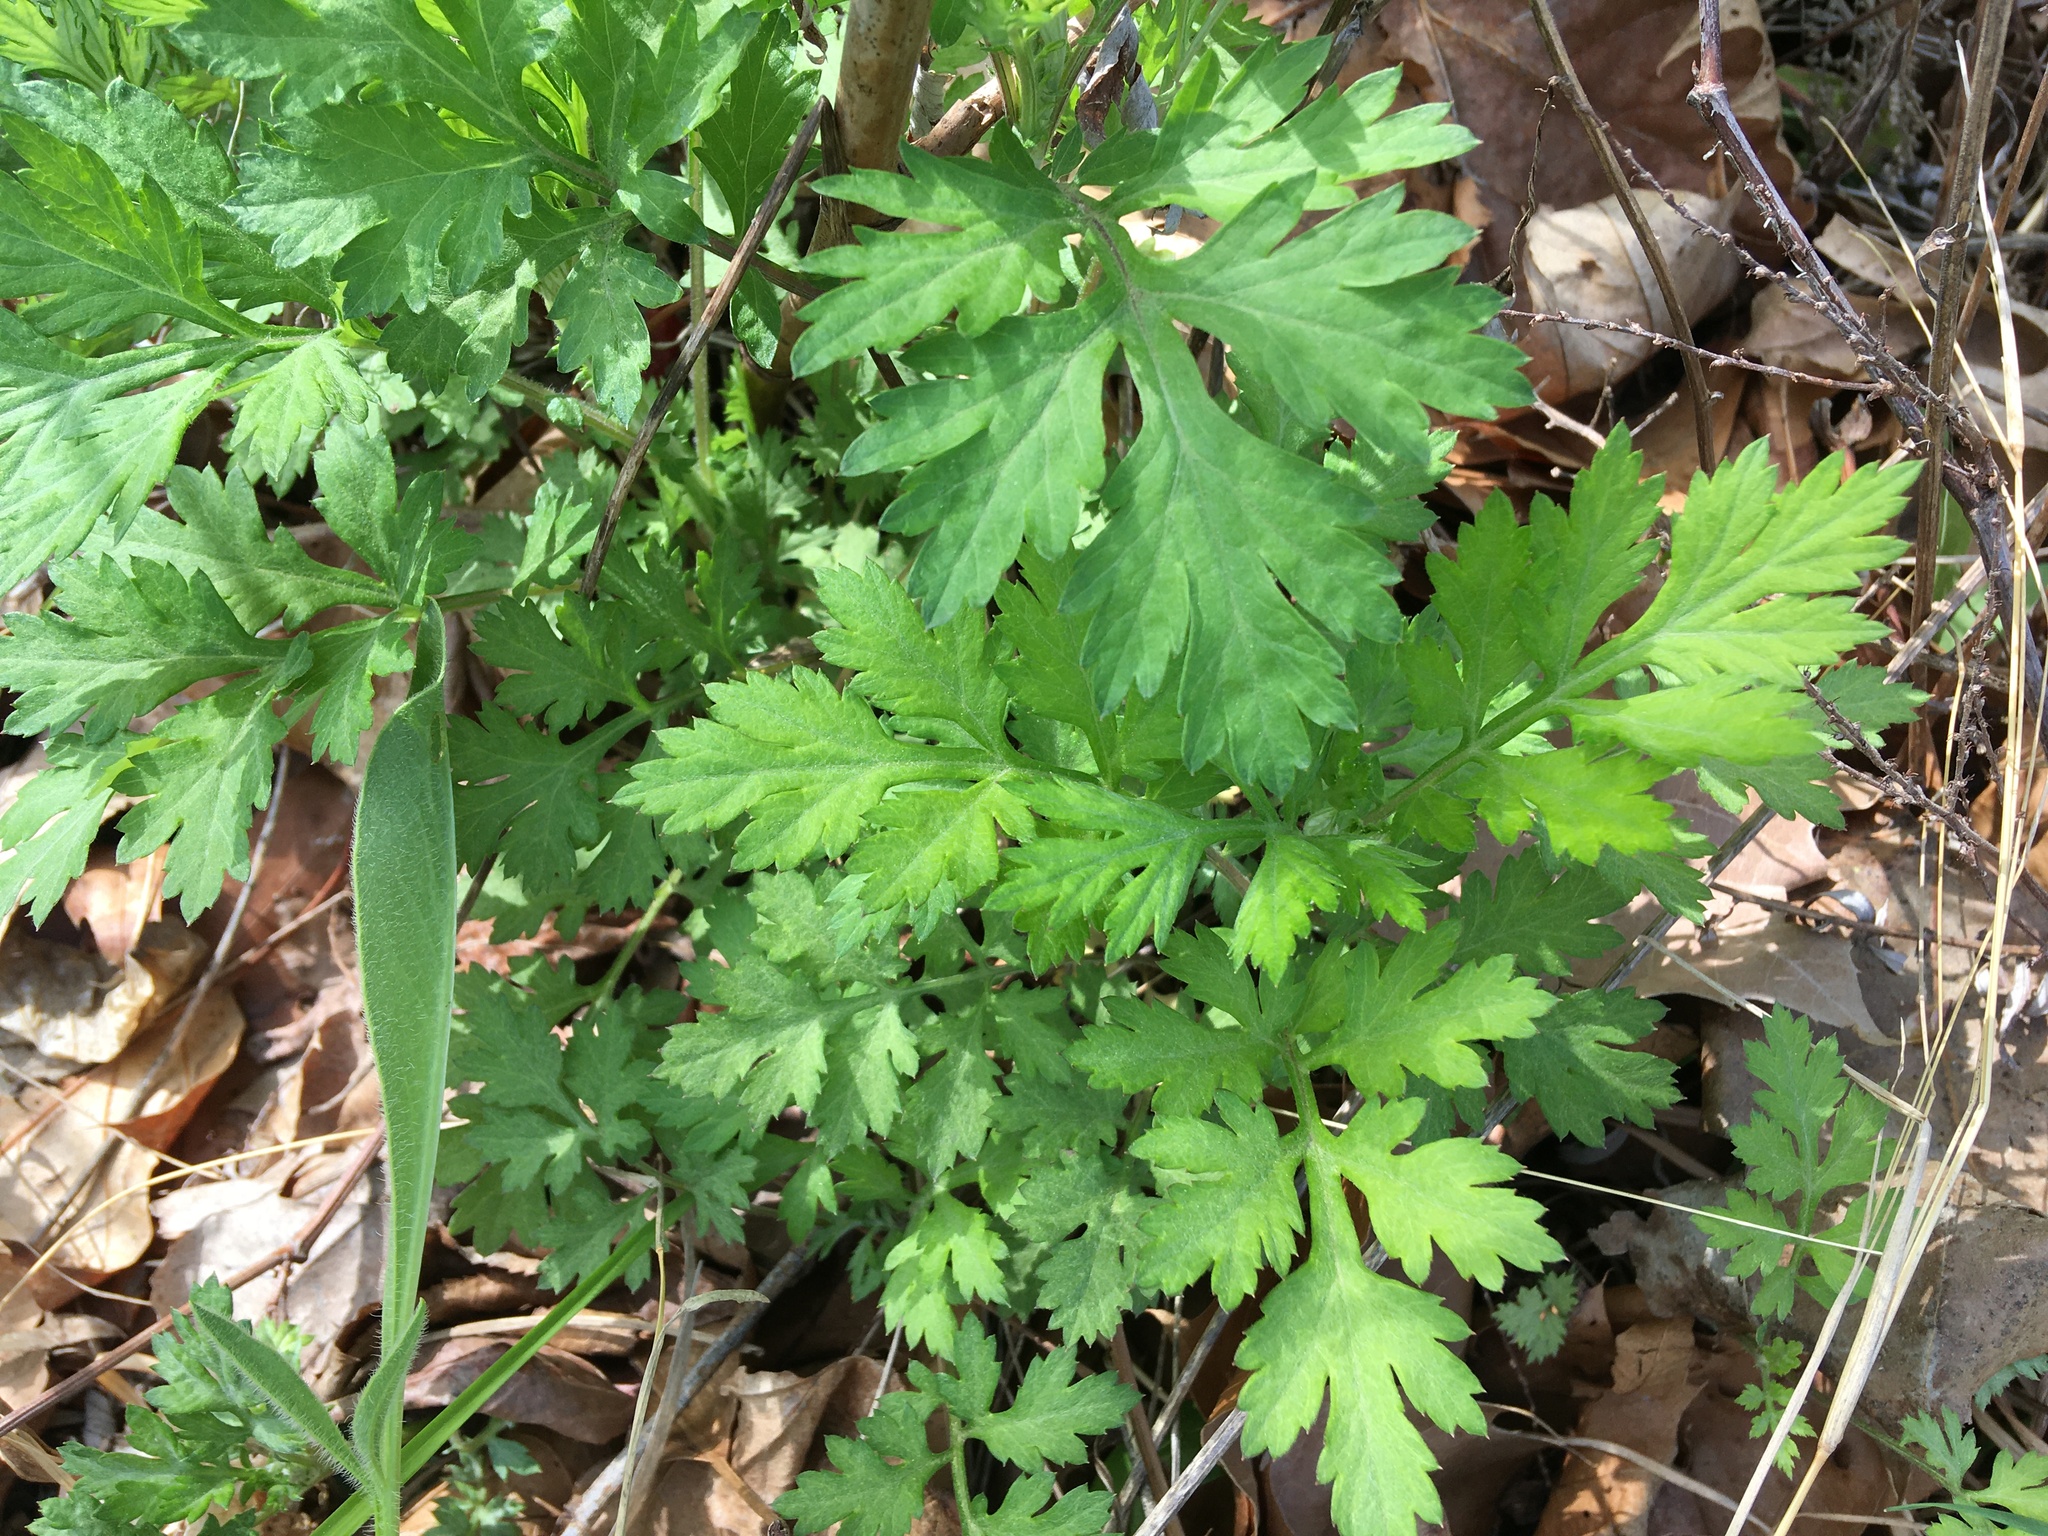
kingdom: Plantae
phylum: Tracheophyta
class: Magnoliopsida
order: Asterales
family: Asteraceae
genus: Artemisia
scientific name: Artemisia vulgaris
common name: Mugwort
